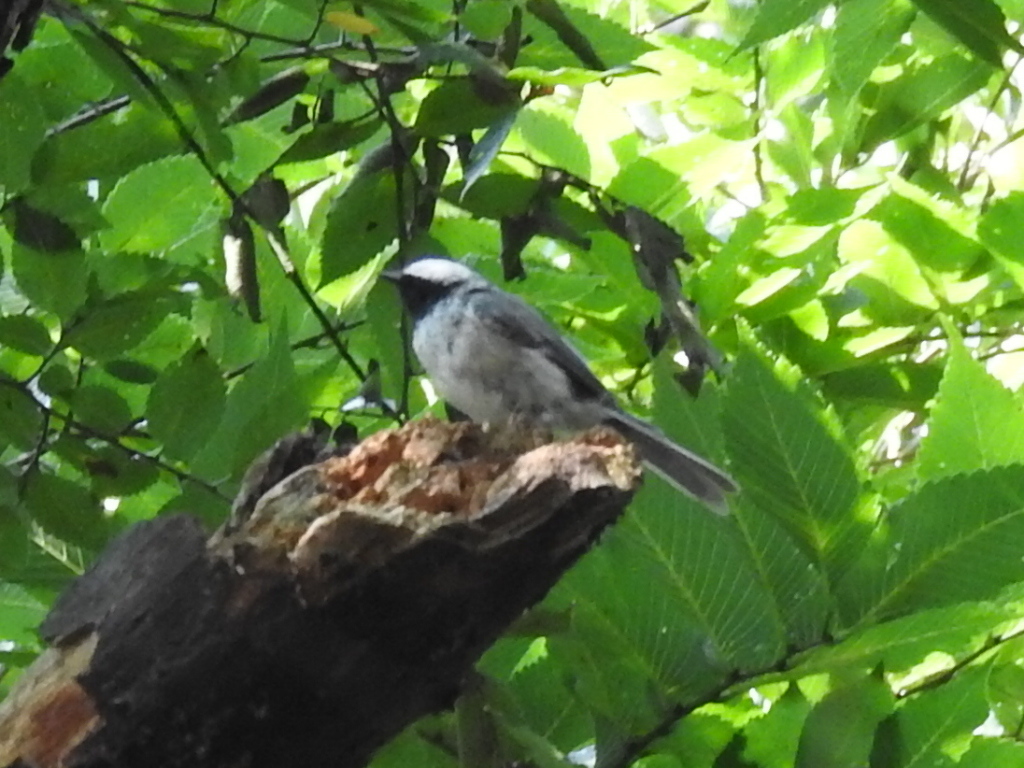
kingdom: Animalia
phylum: Chordata
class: Aves
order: Passeriformes
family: Paridae
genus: Poecile
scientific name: Poecile carolinensis
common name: Carolina chickadee
